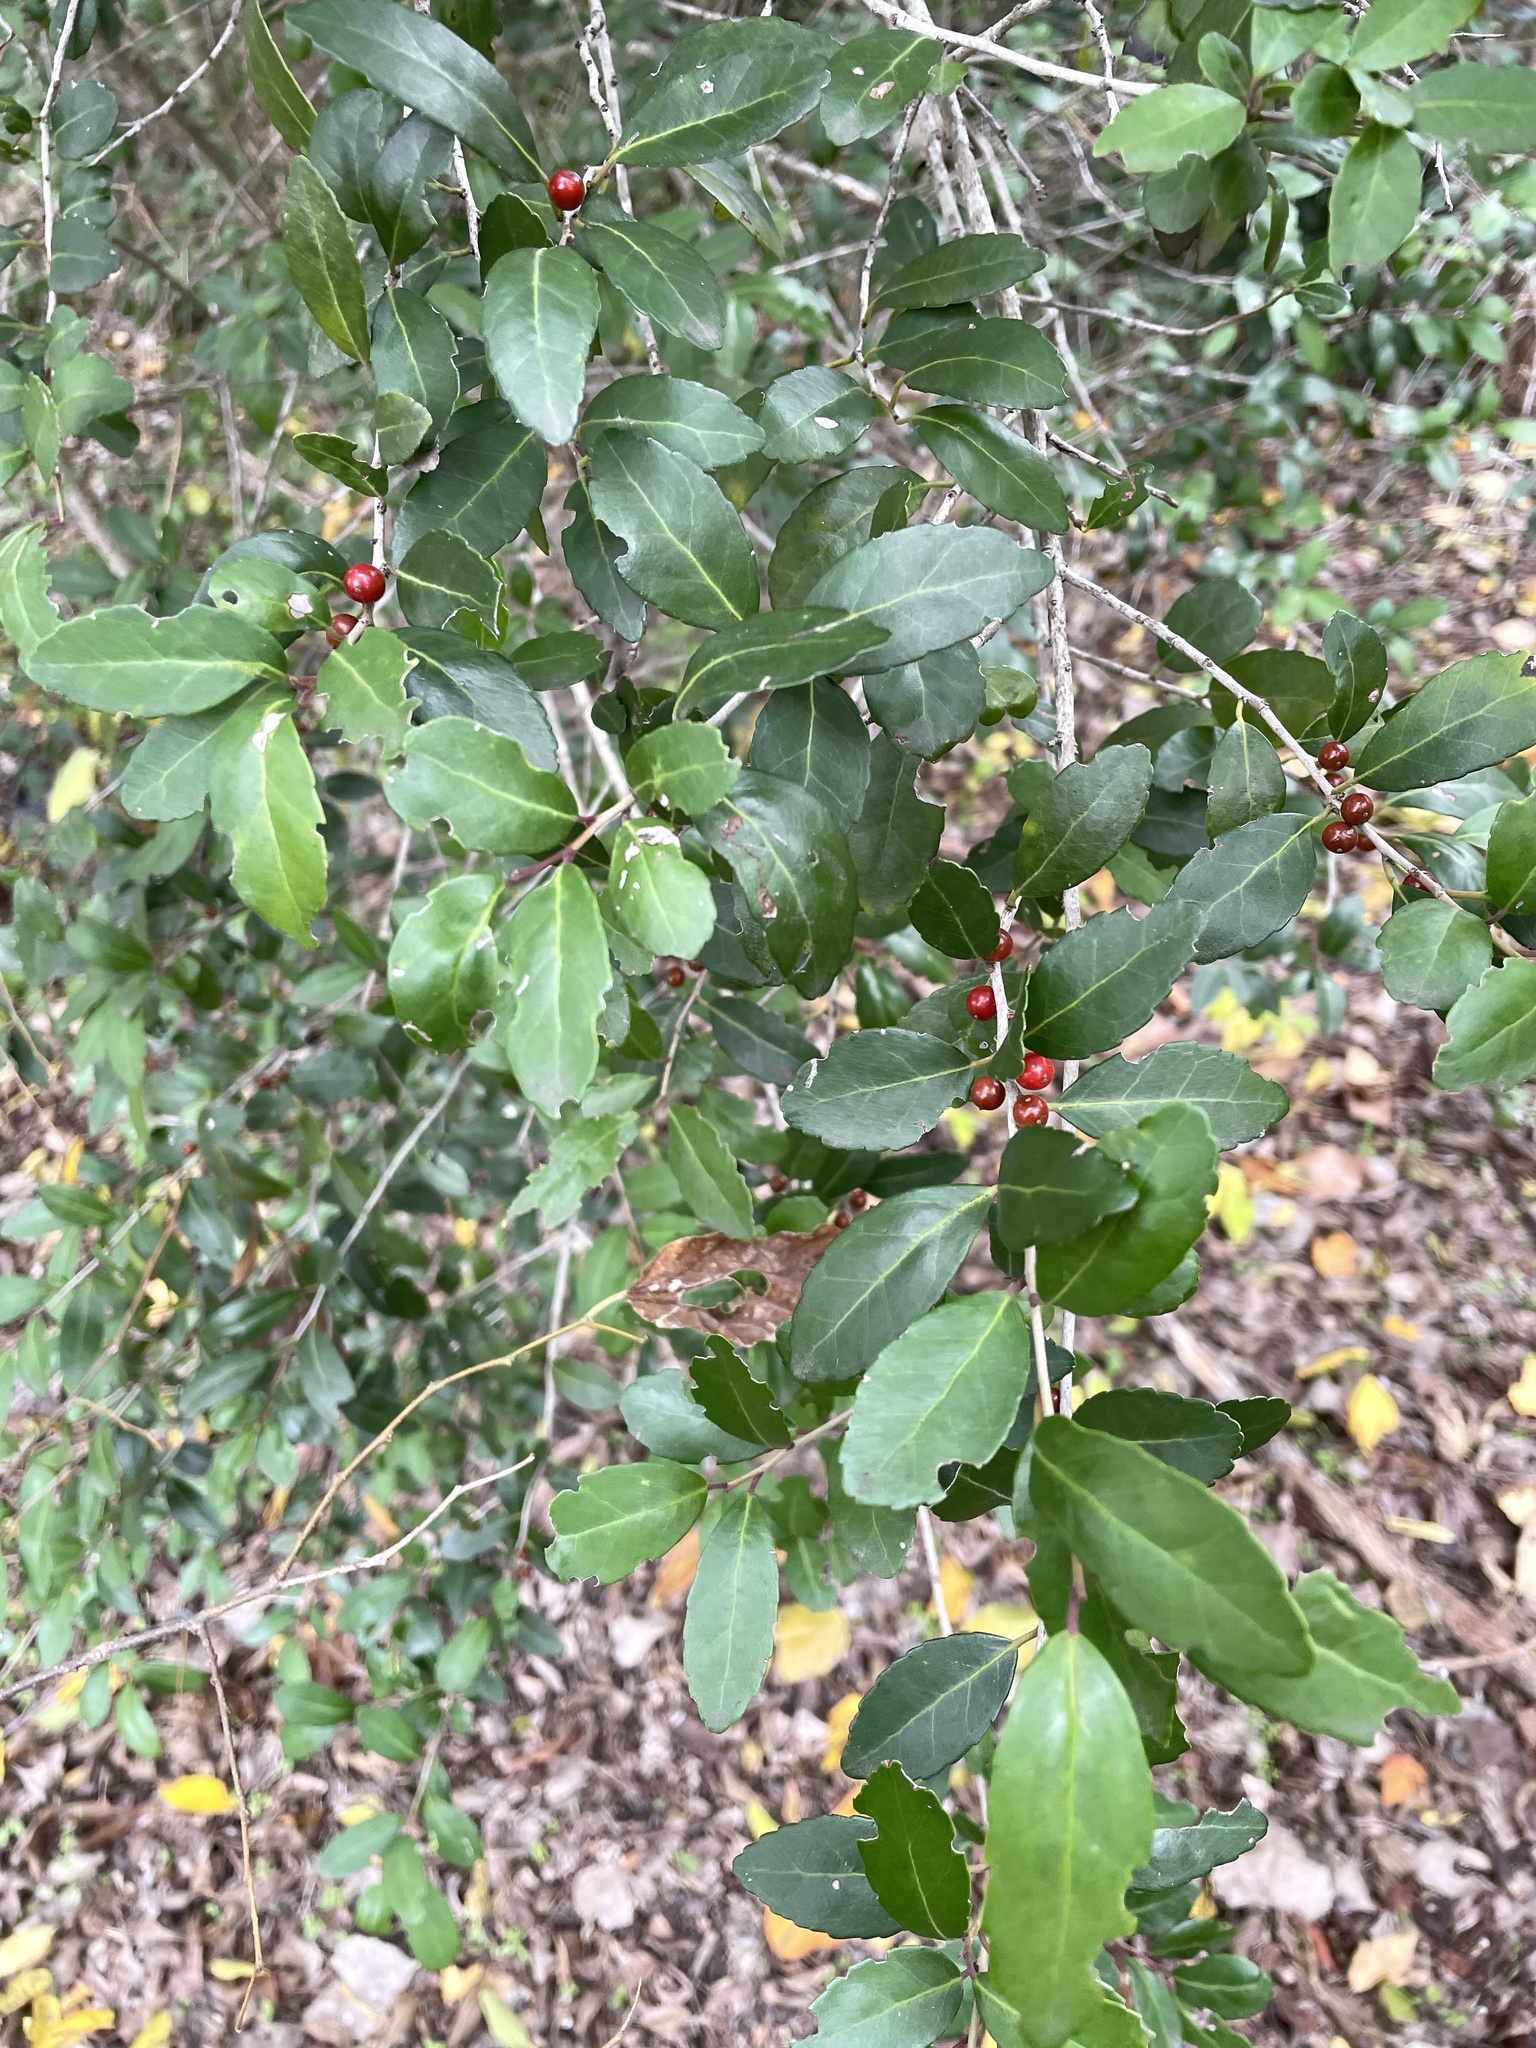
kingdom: Plantae
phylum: Tracheophyta
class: Magnoliopsida
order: Aquifoliales
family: Aquifoliaceae
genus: Ilex
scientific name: Ilex vomitoria
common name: Yaupon holly
